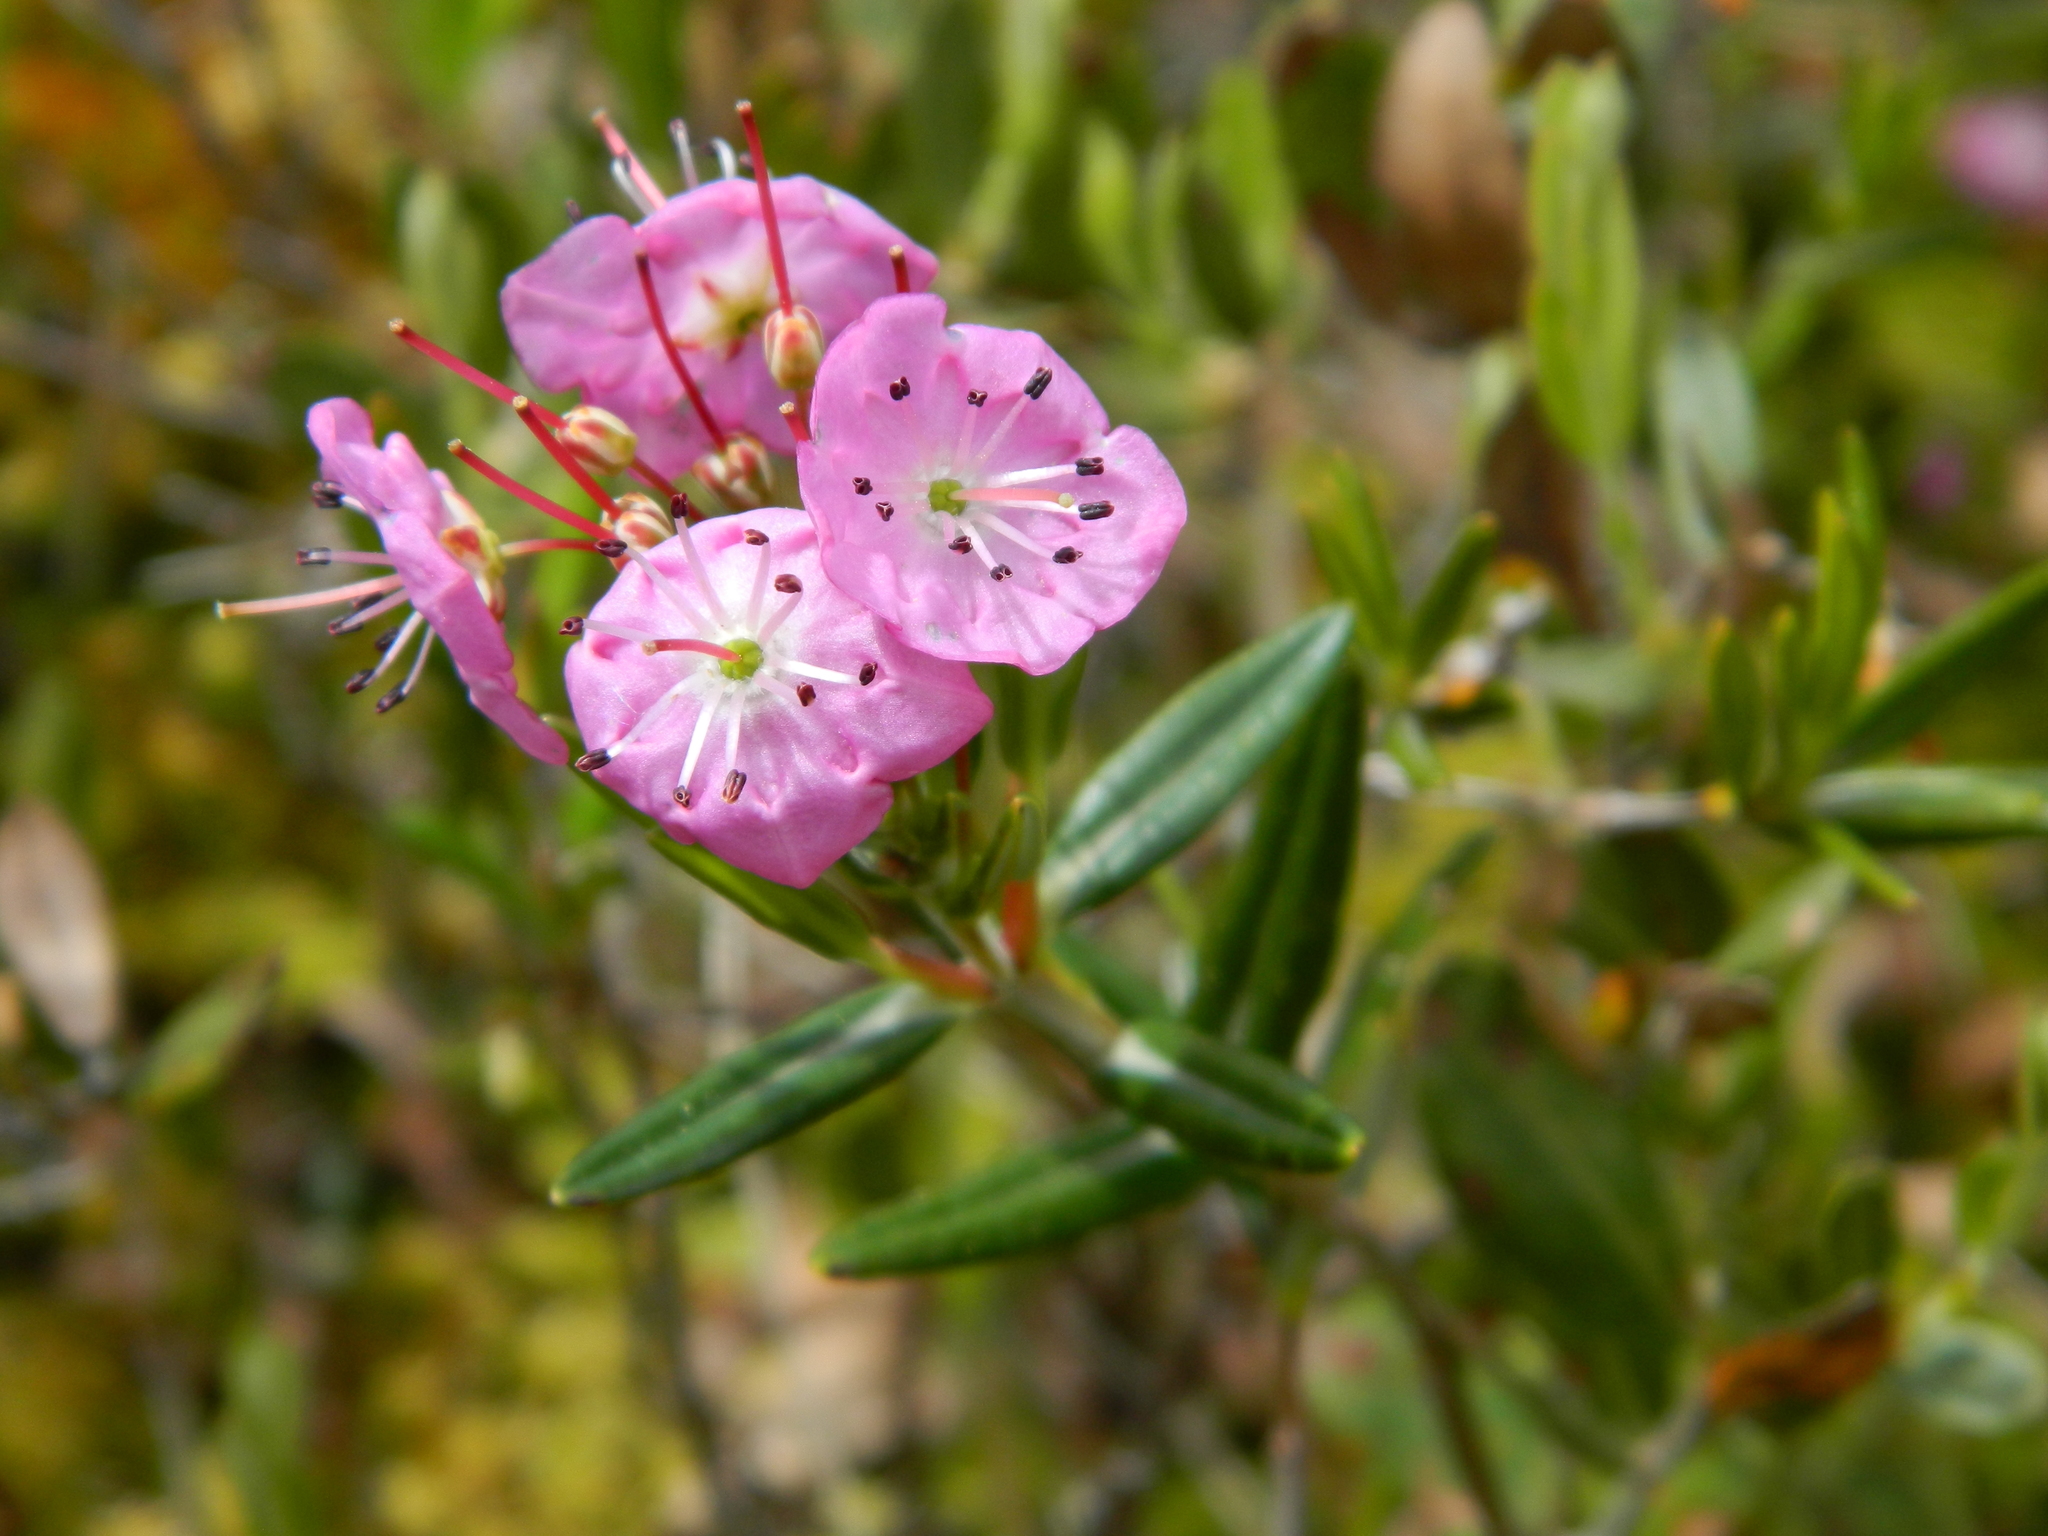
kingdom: Plantae
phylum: Tracheophyta
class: Magnoliopsida
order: Ericales
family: Ericaceae
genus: Kalmia
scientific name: Kalmia polifolia
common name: Bog-laurel
